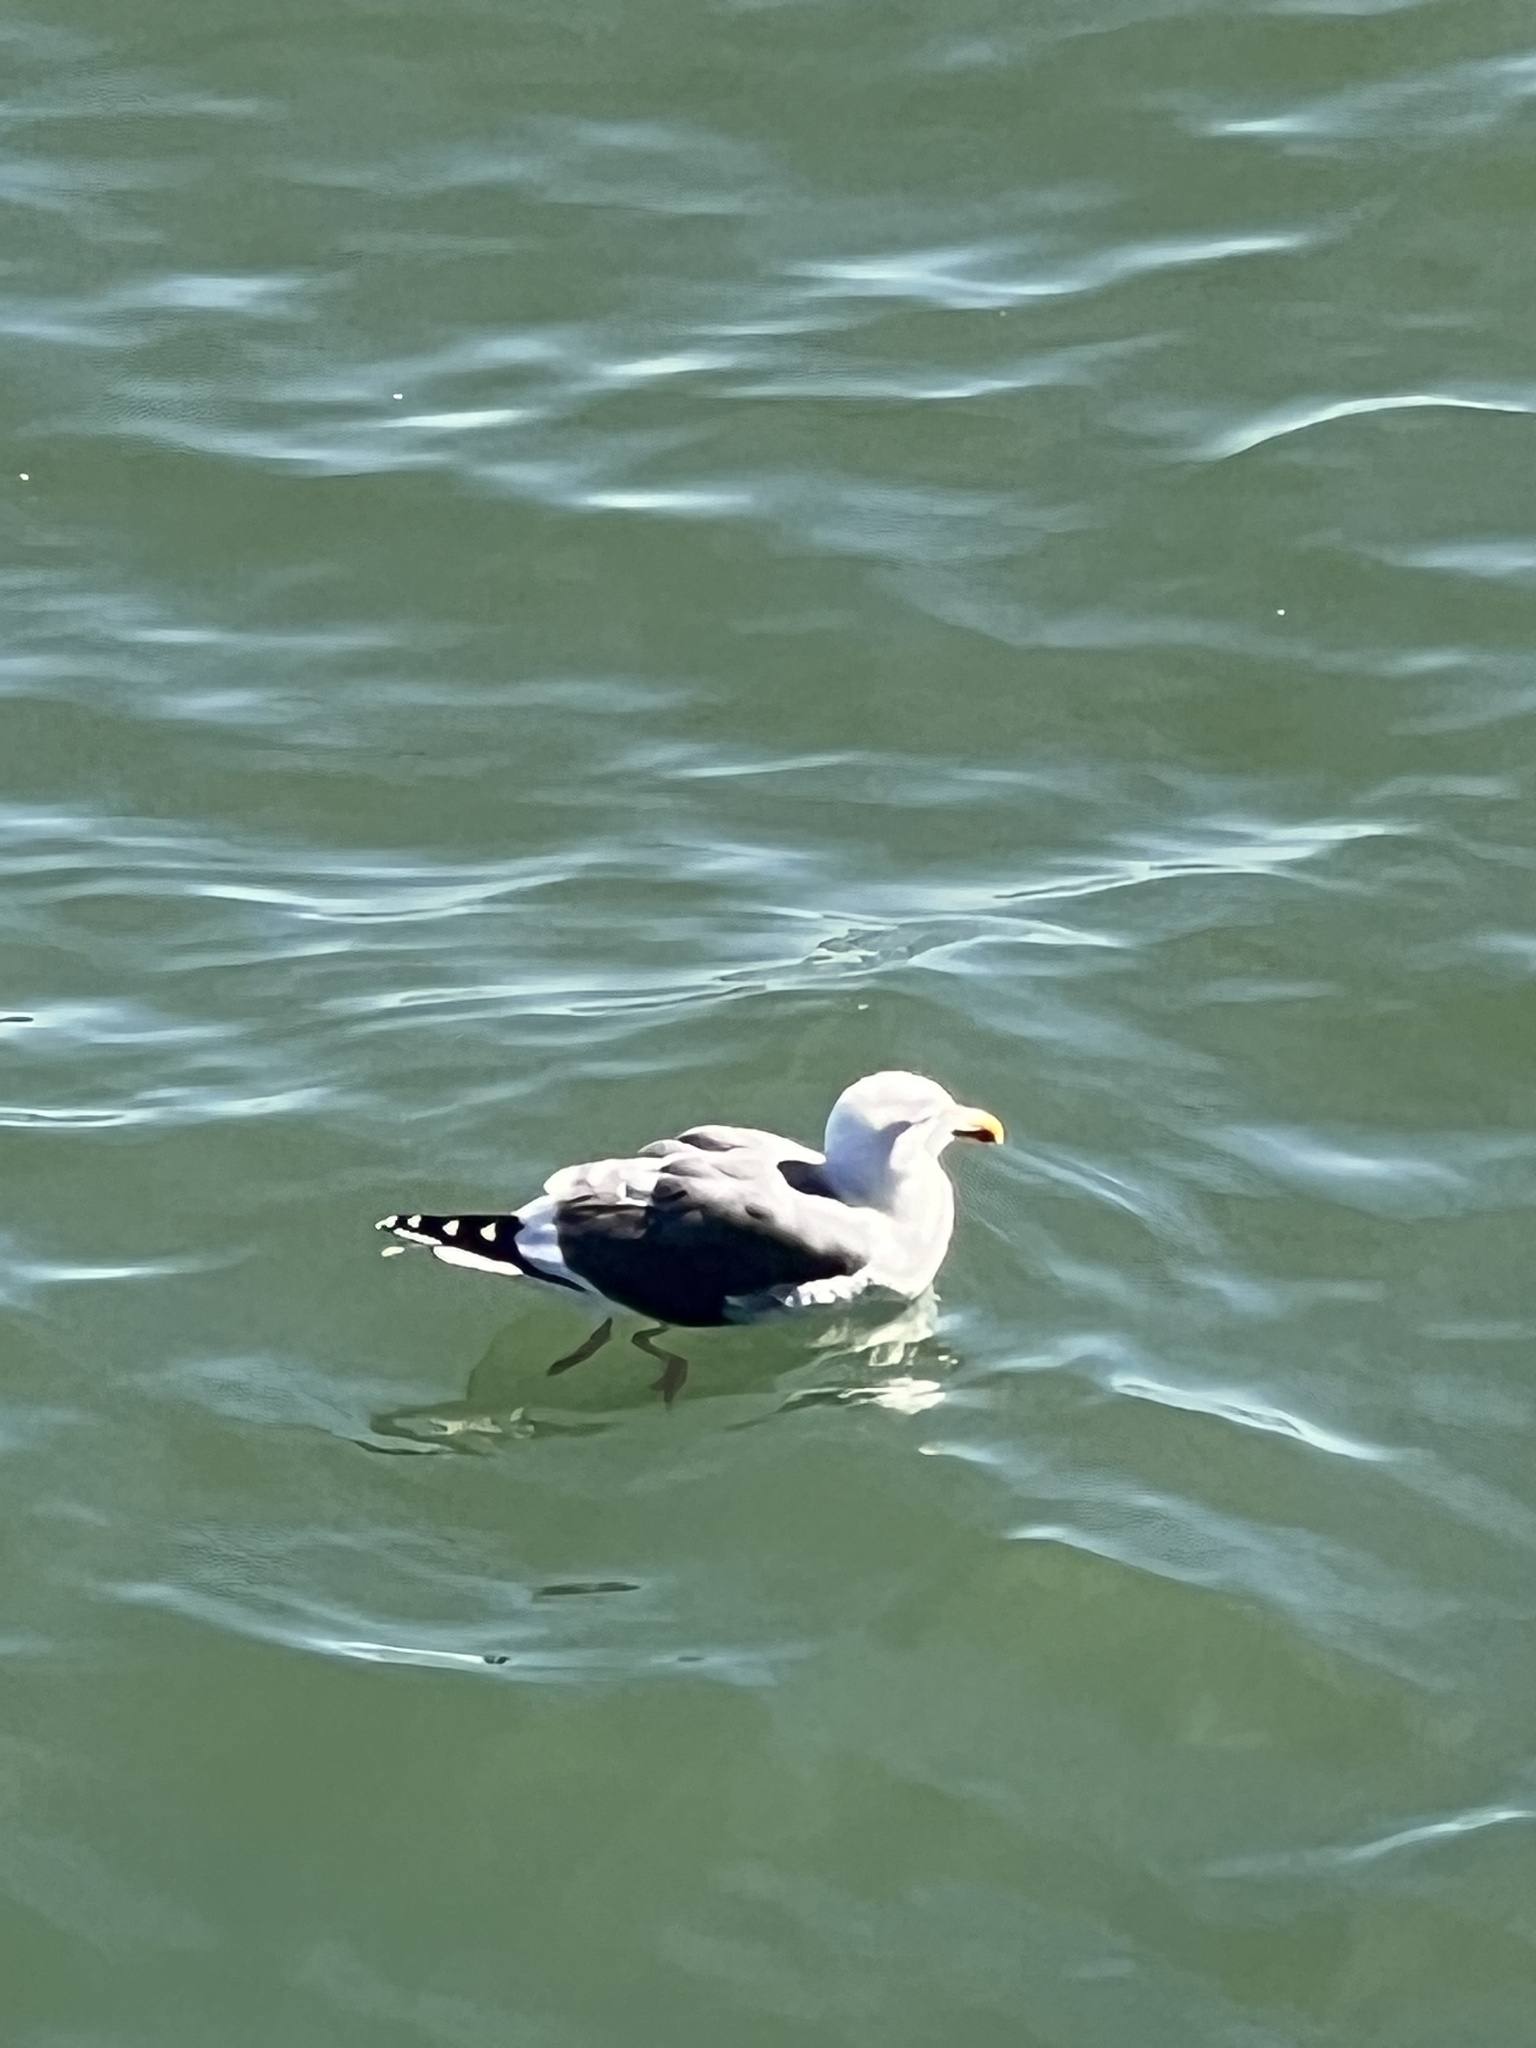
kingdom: Animalia
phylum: Chordata
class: Aves
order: Charadriiformes
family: Laridae
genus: Larus
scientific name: Larus occidentalis
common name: Western gull
